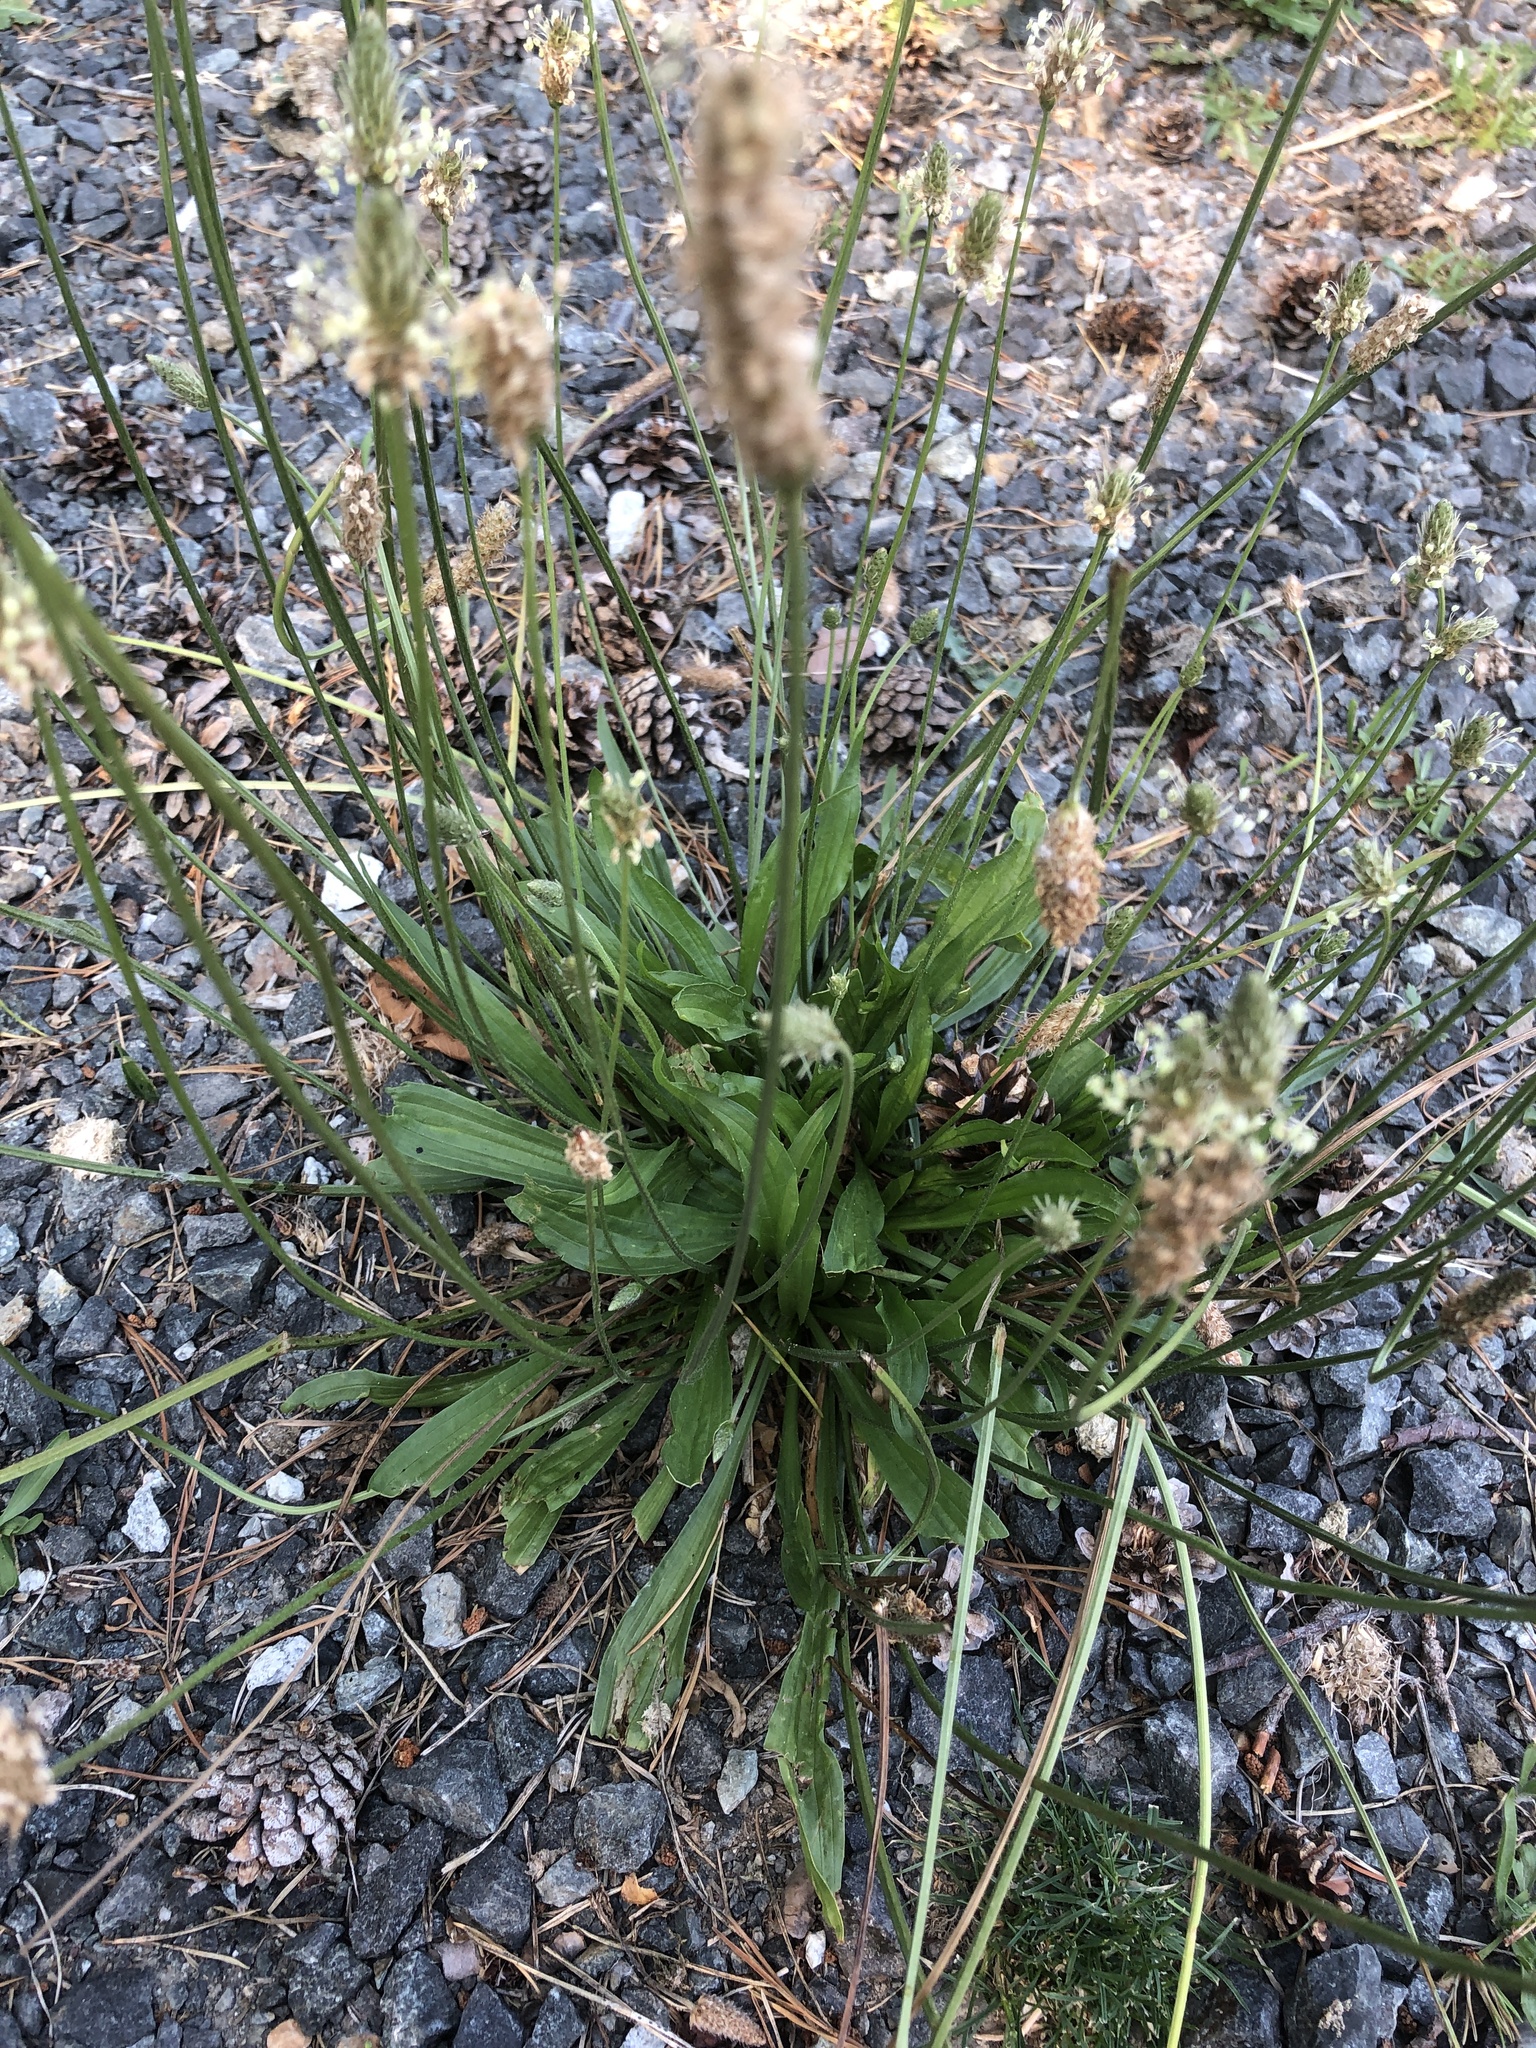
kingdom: Plantae
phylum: Tracheophyta
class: Magnoliopsida
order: Lamiales
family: Plantaginaceae
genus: Plantago
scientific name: Plantago lanceolata
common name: Ribwort plantain
